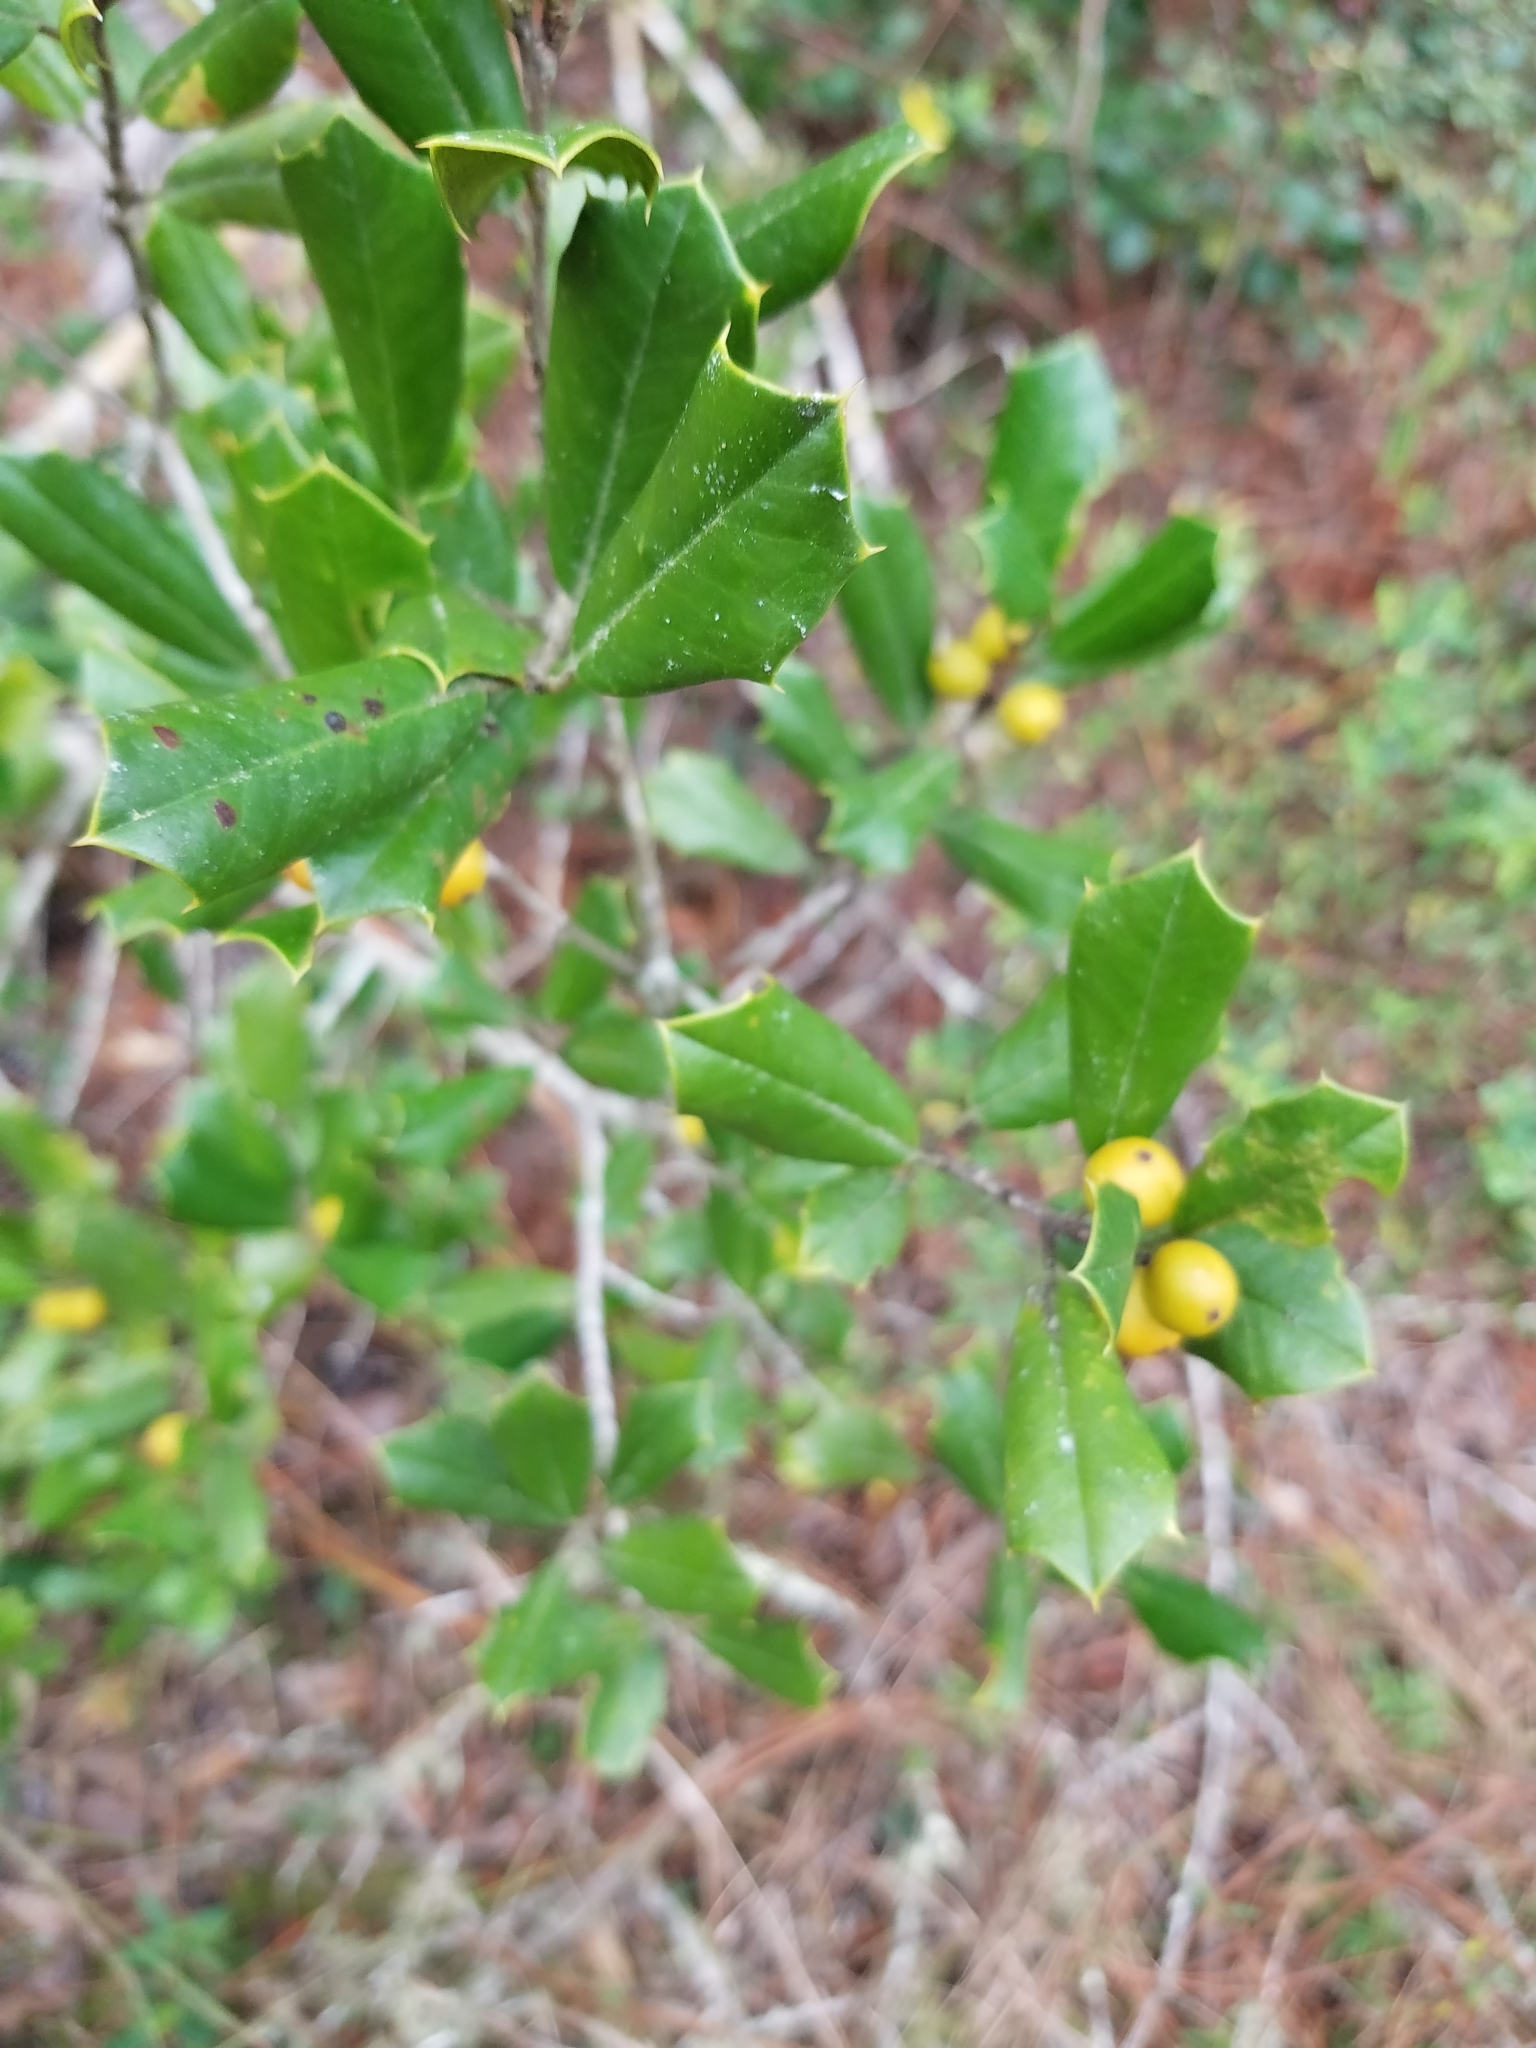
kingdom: Plantae
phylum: Tracheophyta
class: Magnoliopsida
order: Aquifoliales
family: Aquifoliaceae
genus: Ilex
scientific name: Ilex opaca
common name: American holly
